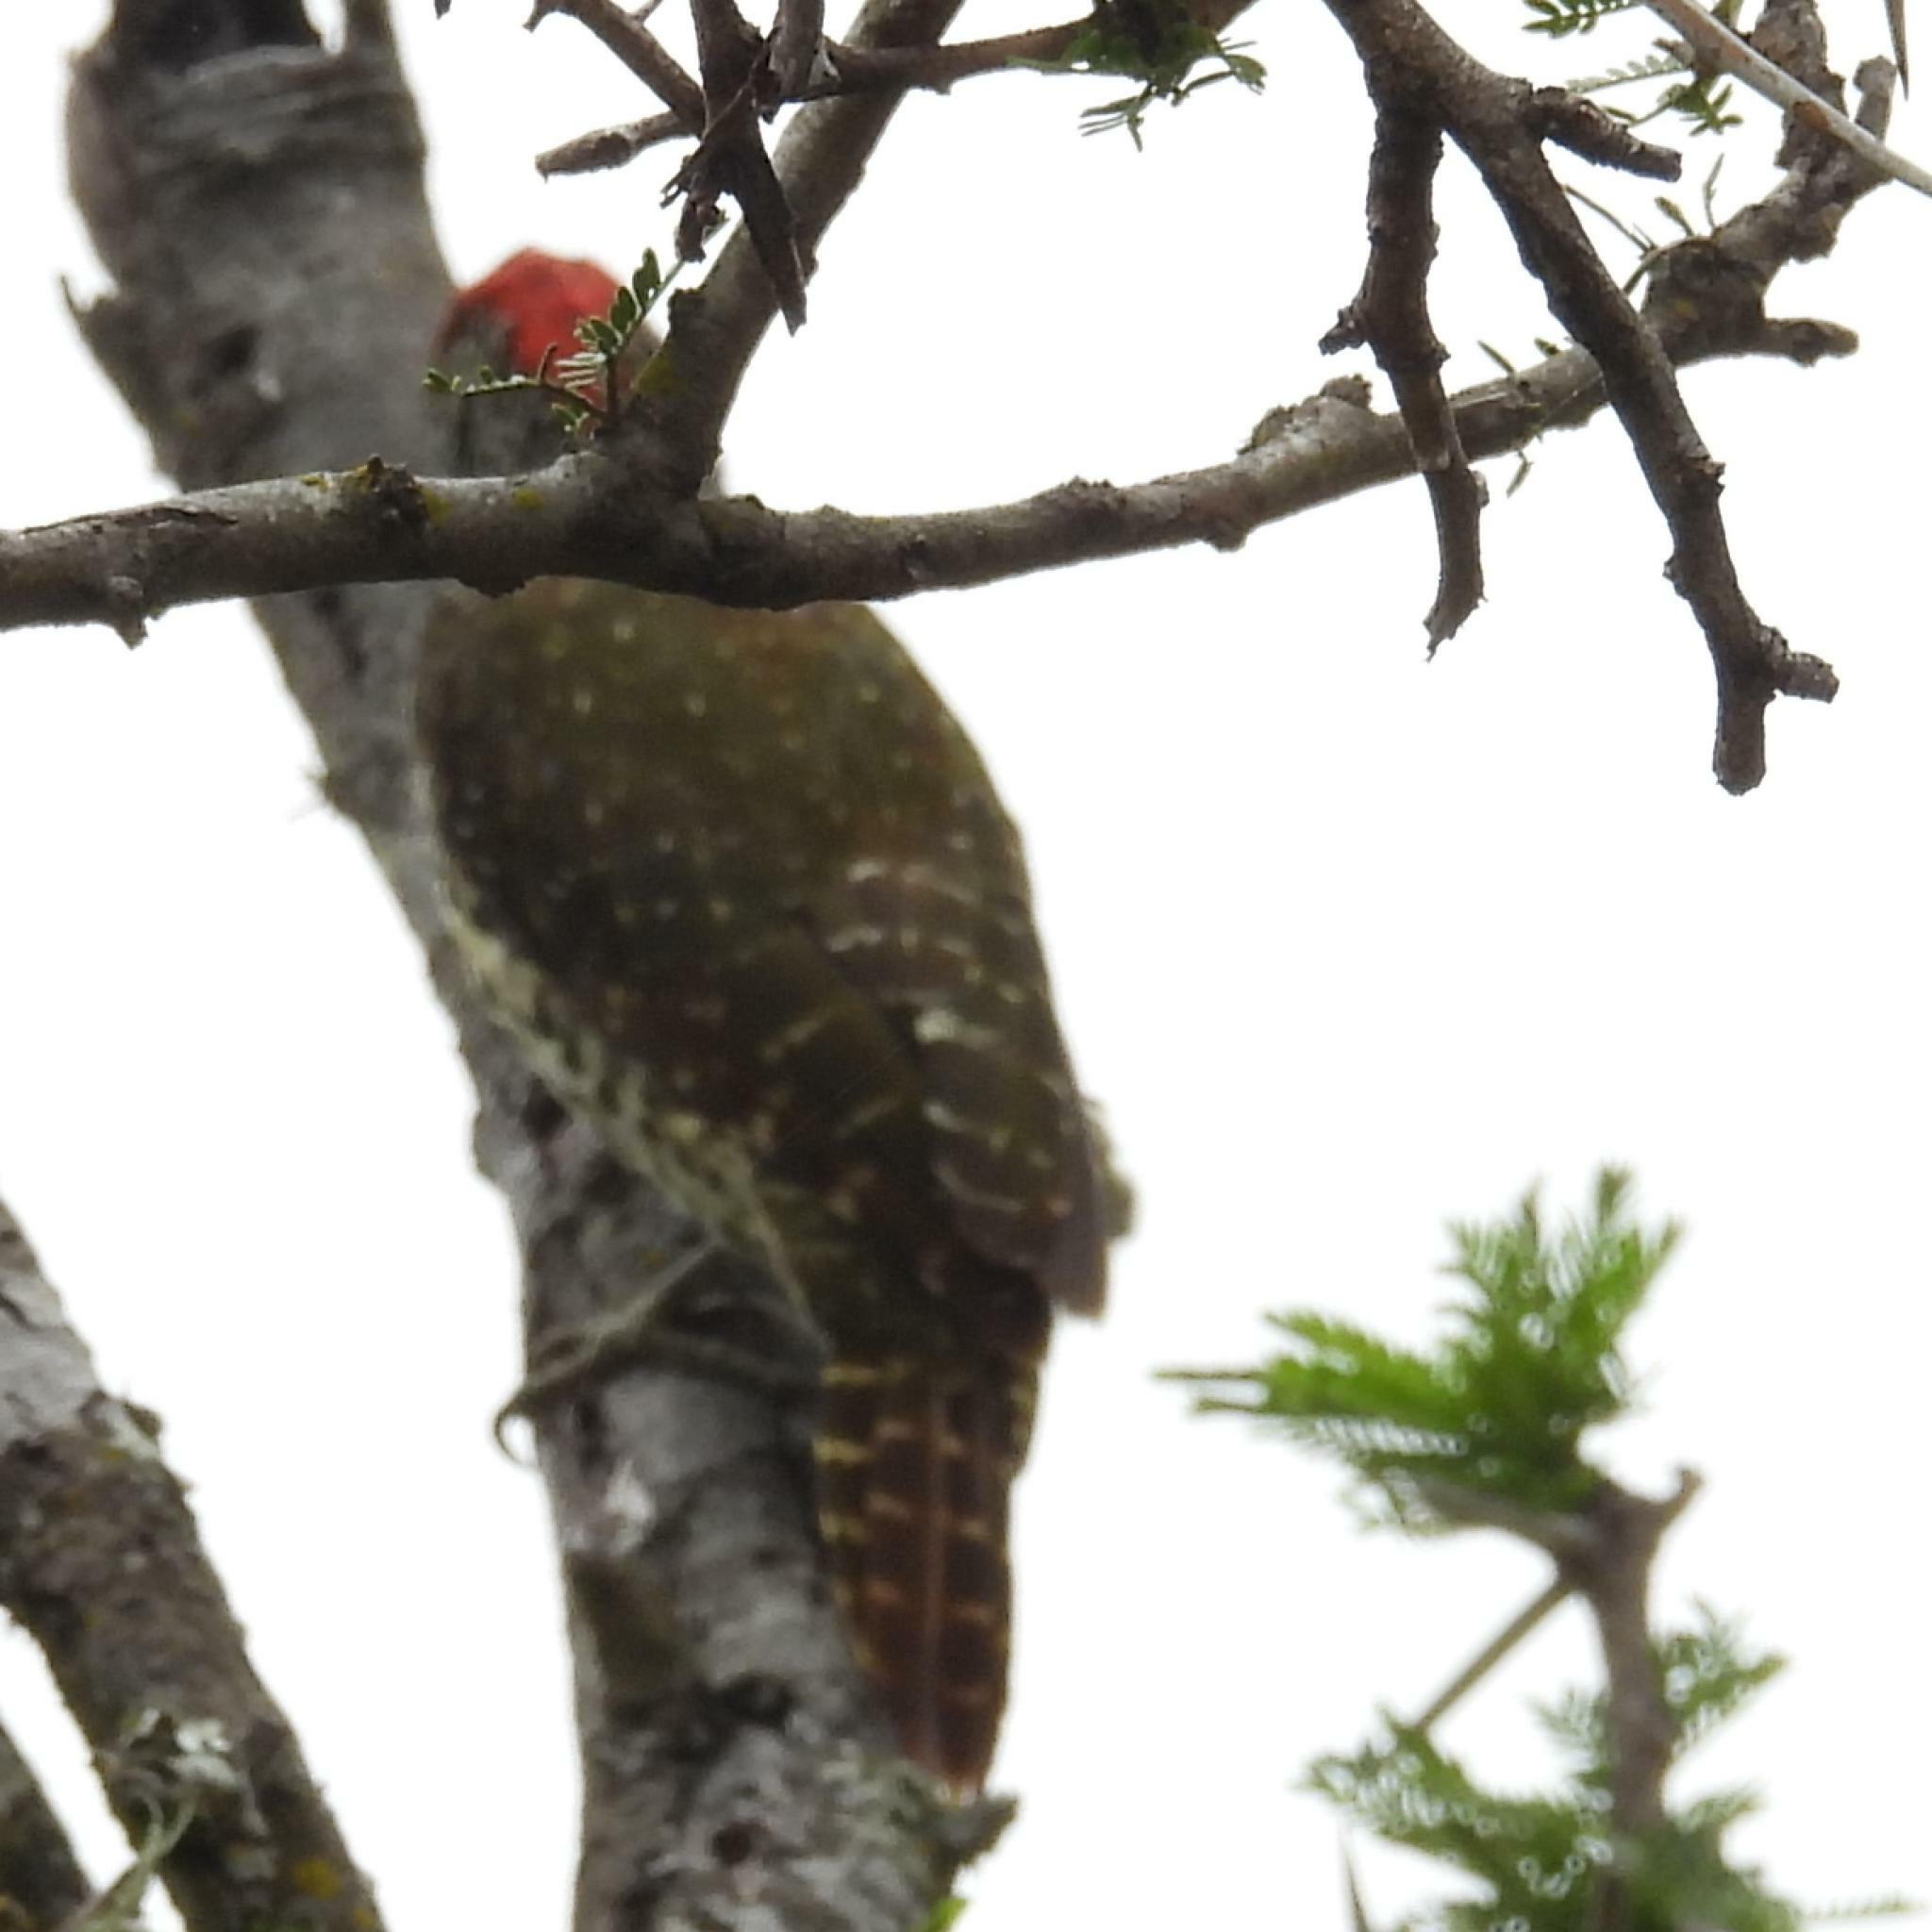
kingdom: Animalia
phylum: Chordata
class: Aves
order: Piciformes
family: Picidae
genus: Campethera
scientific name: Campethera notata
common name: Knysna woodpecker
